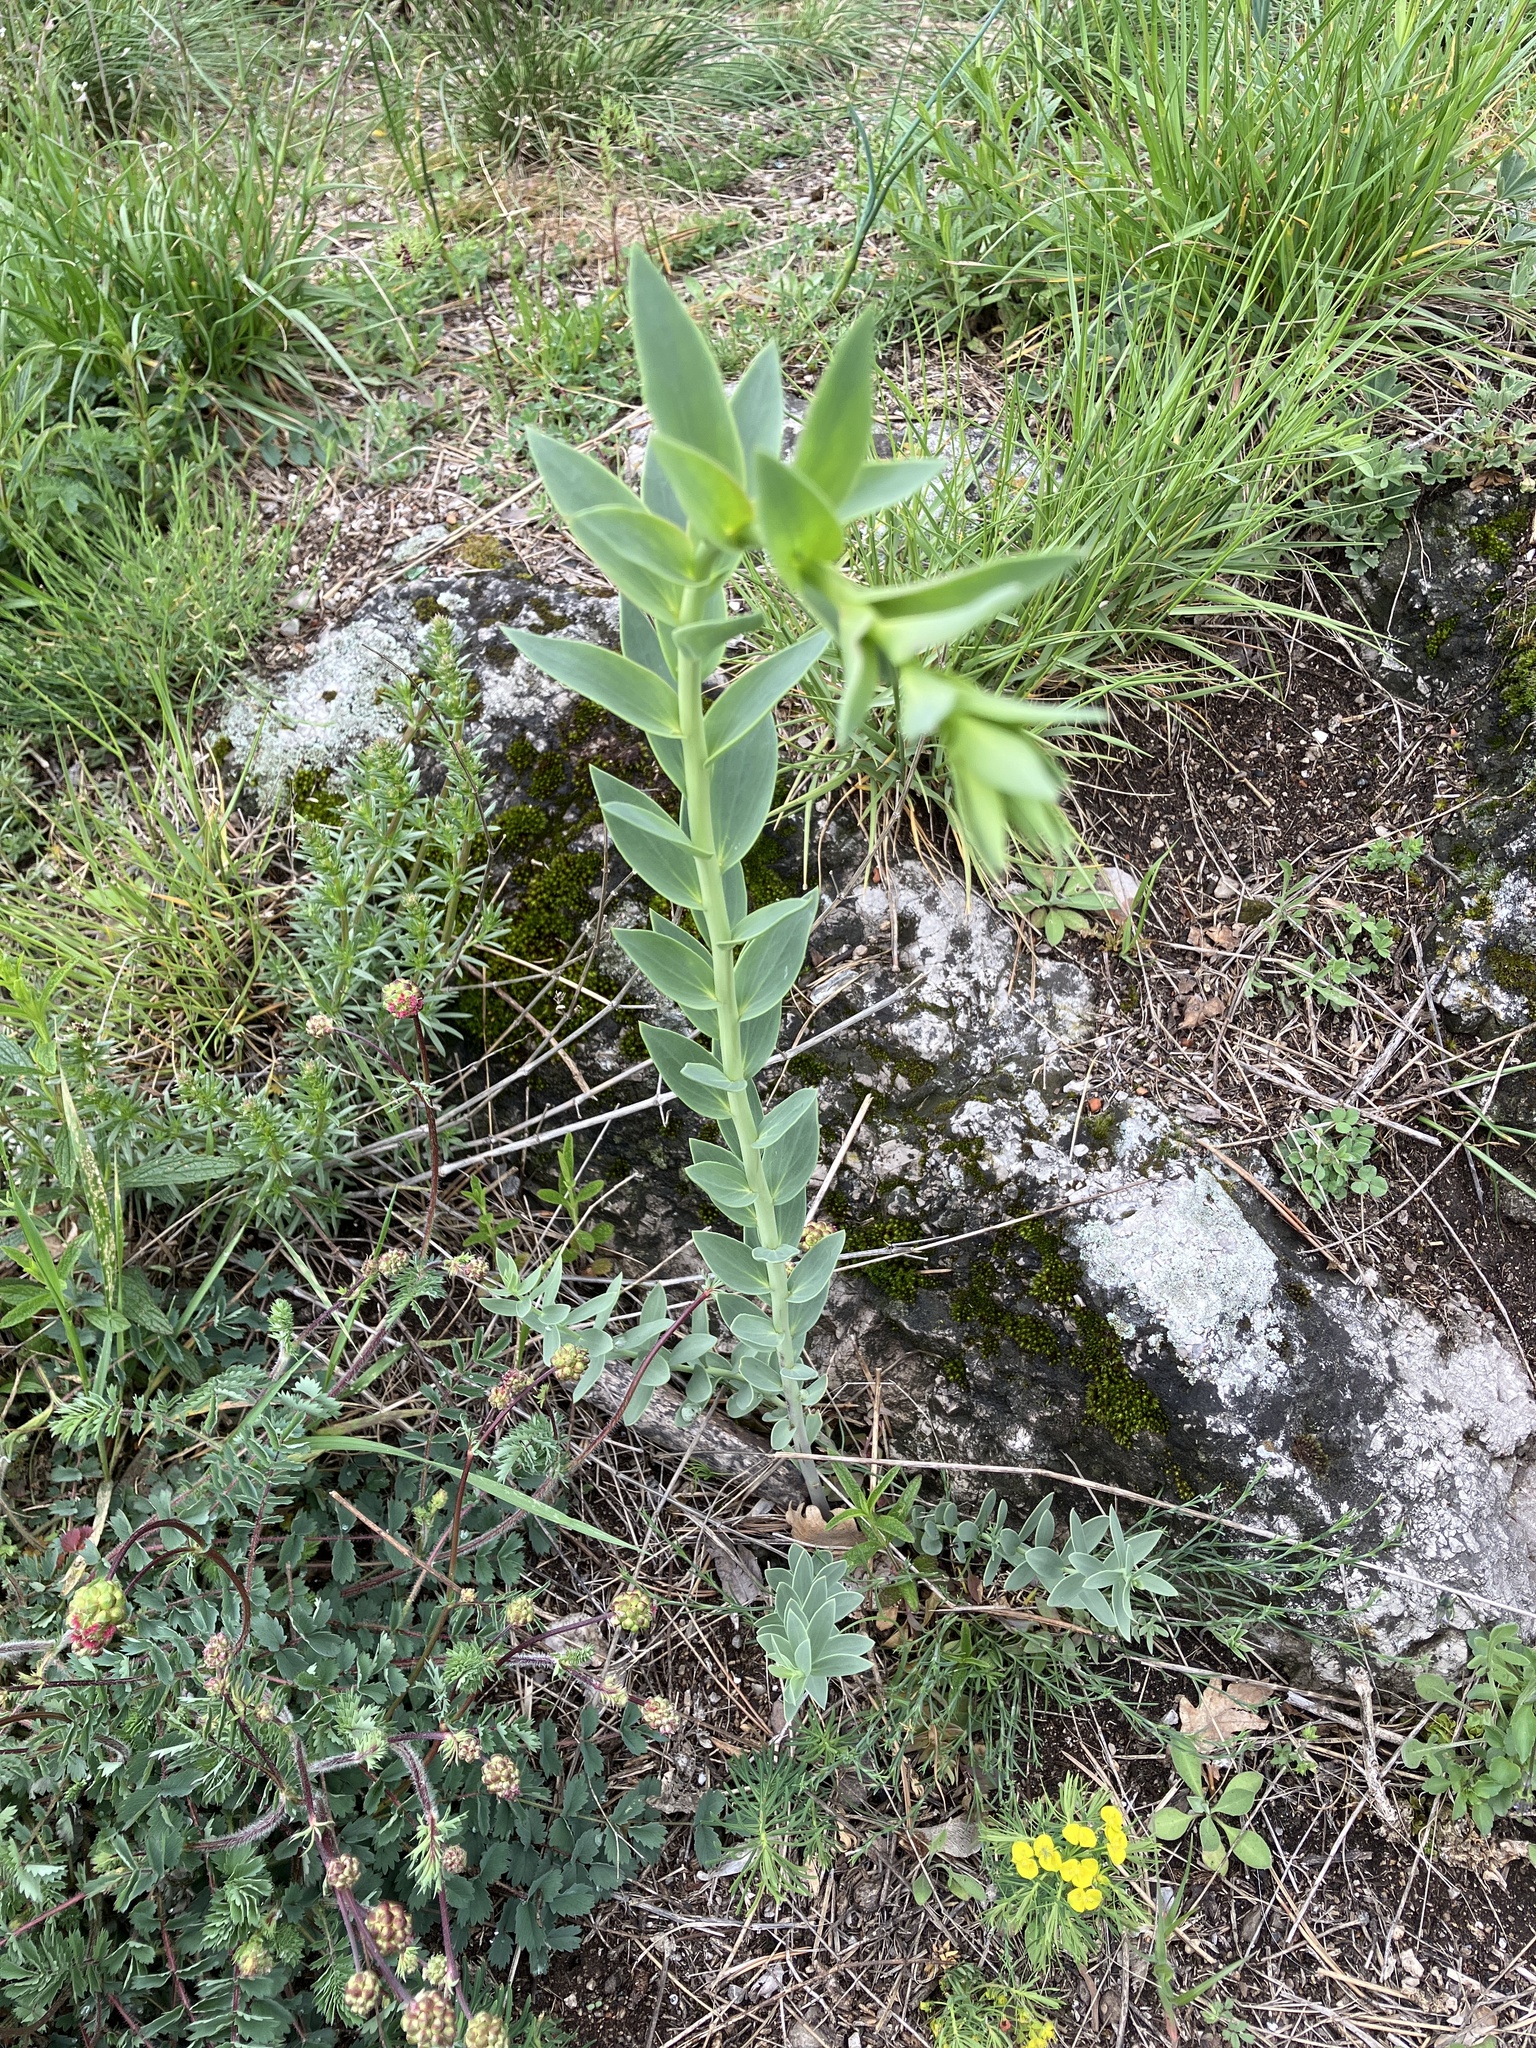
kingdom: Plantae
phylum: Tracheophyta
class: Magnoliopsida
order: Lamiales
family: Plantaginaceae
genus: Linaria
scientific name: Linaria genistifolia
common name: Broomleaf toadflax
